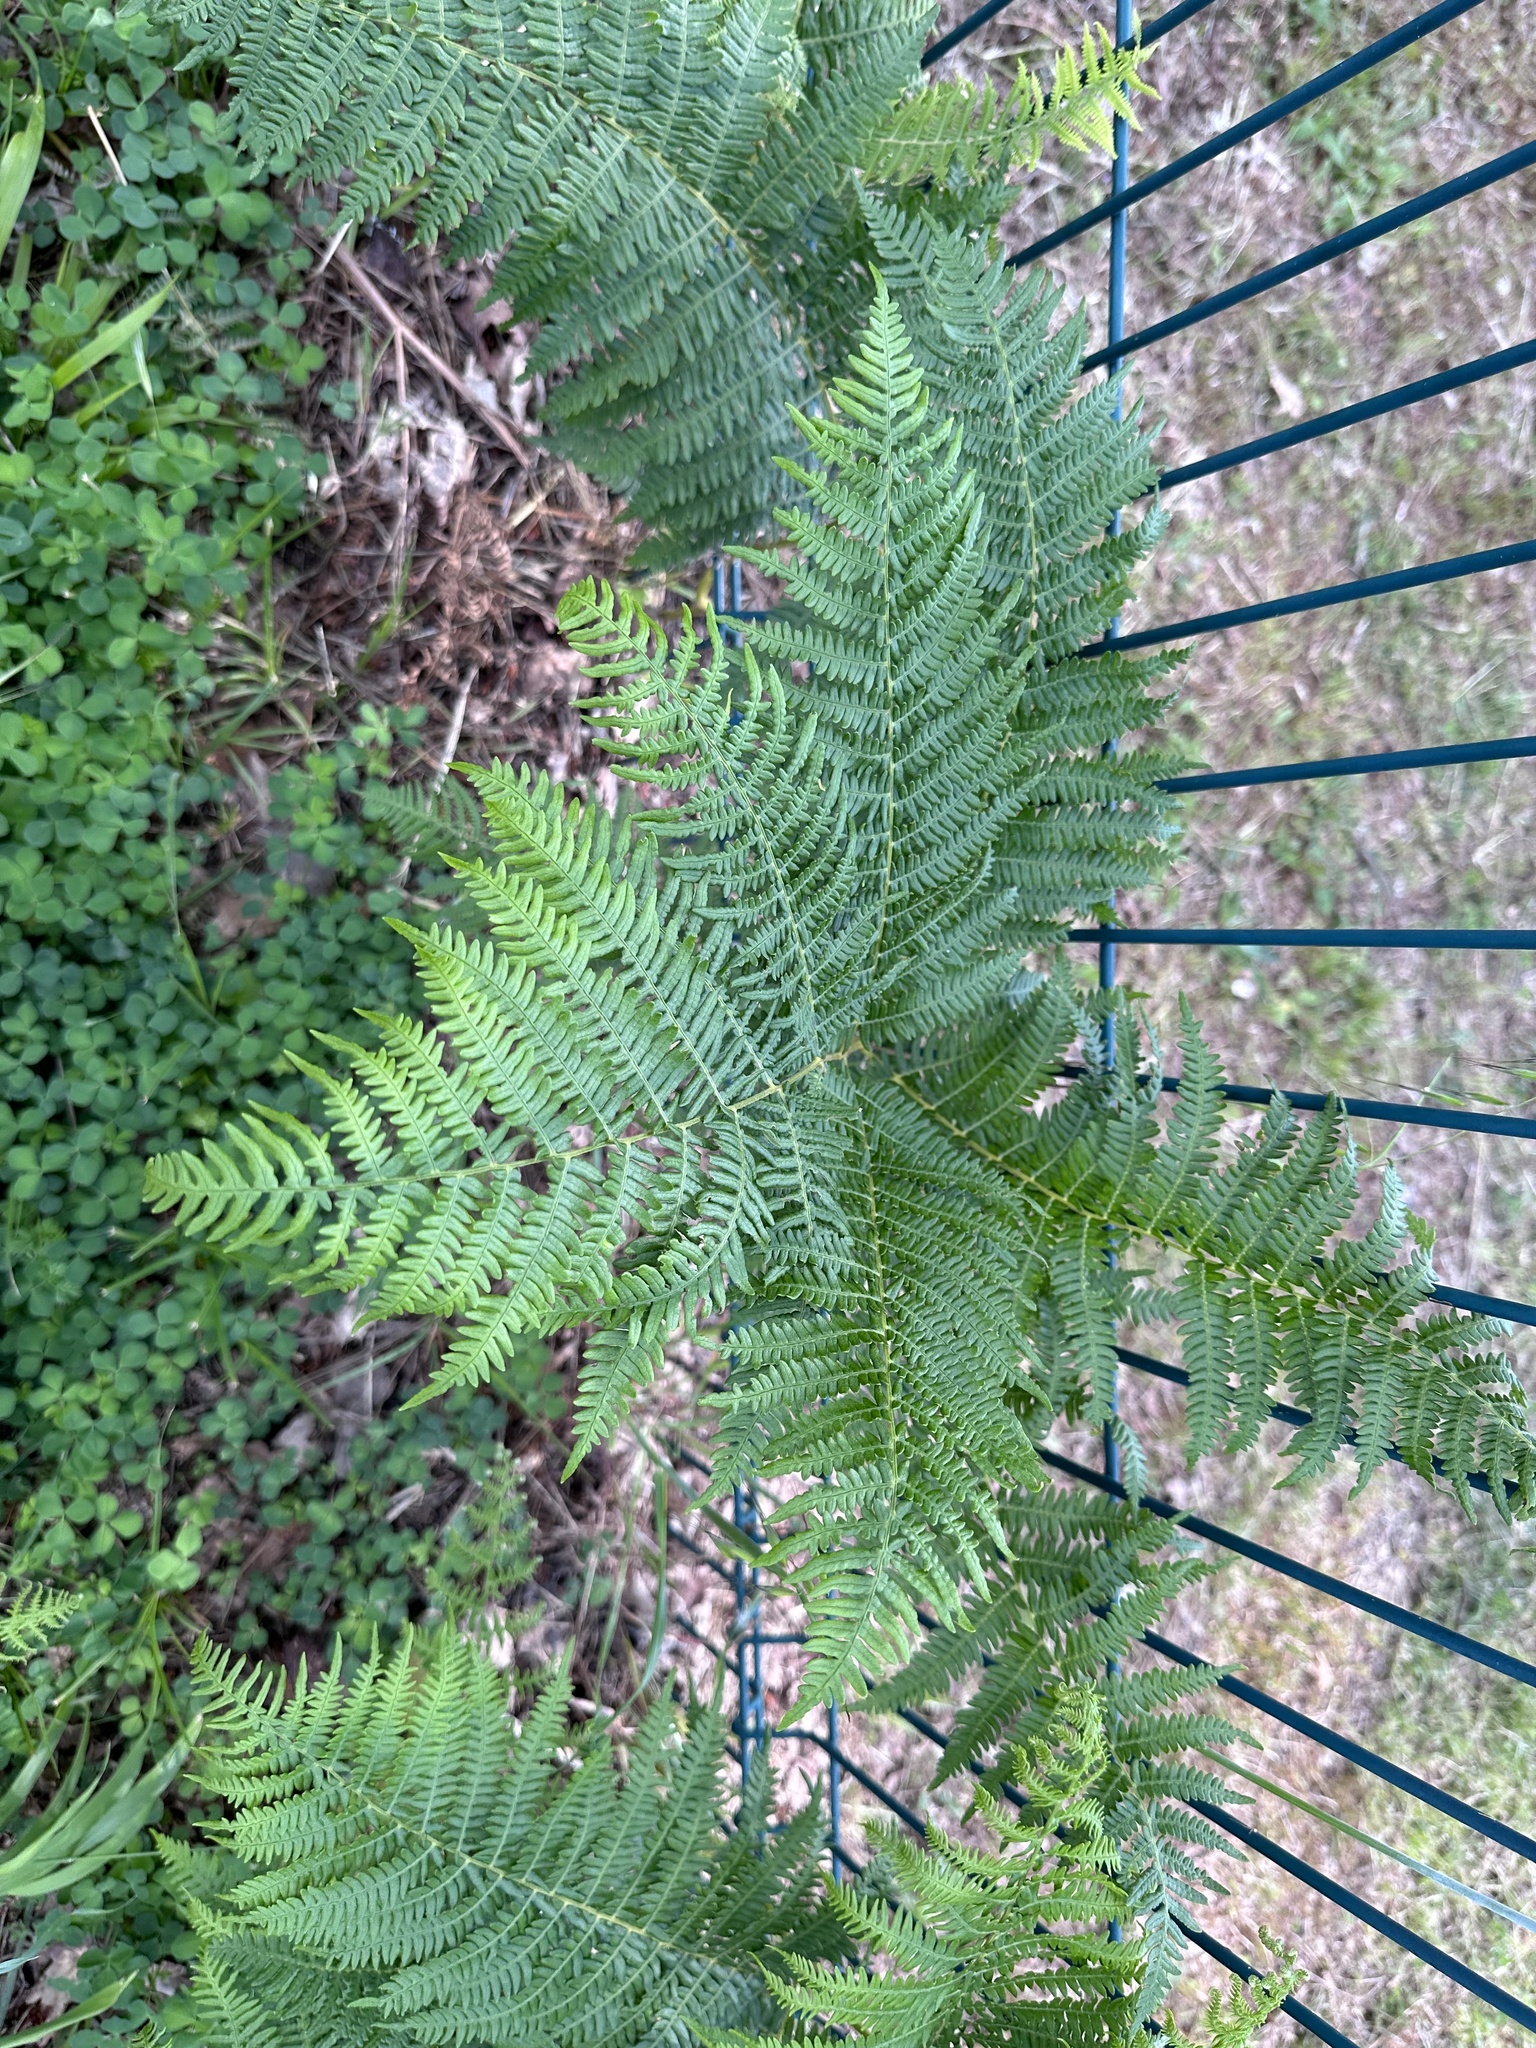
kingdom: Plantae
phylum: Tracheophyta
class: Polypodiopsida
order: Polypodiales
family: Dennstaedtiaceae
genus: Pteridium
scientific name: Pteridium aquilinum
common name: Bracken
